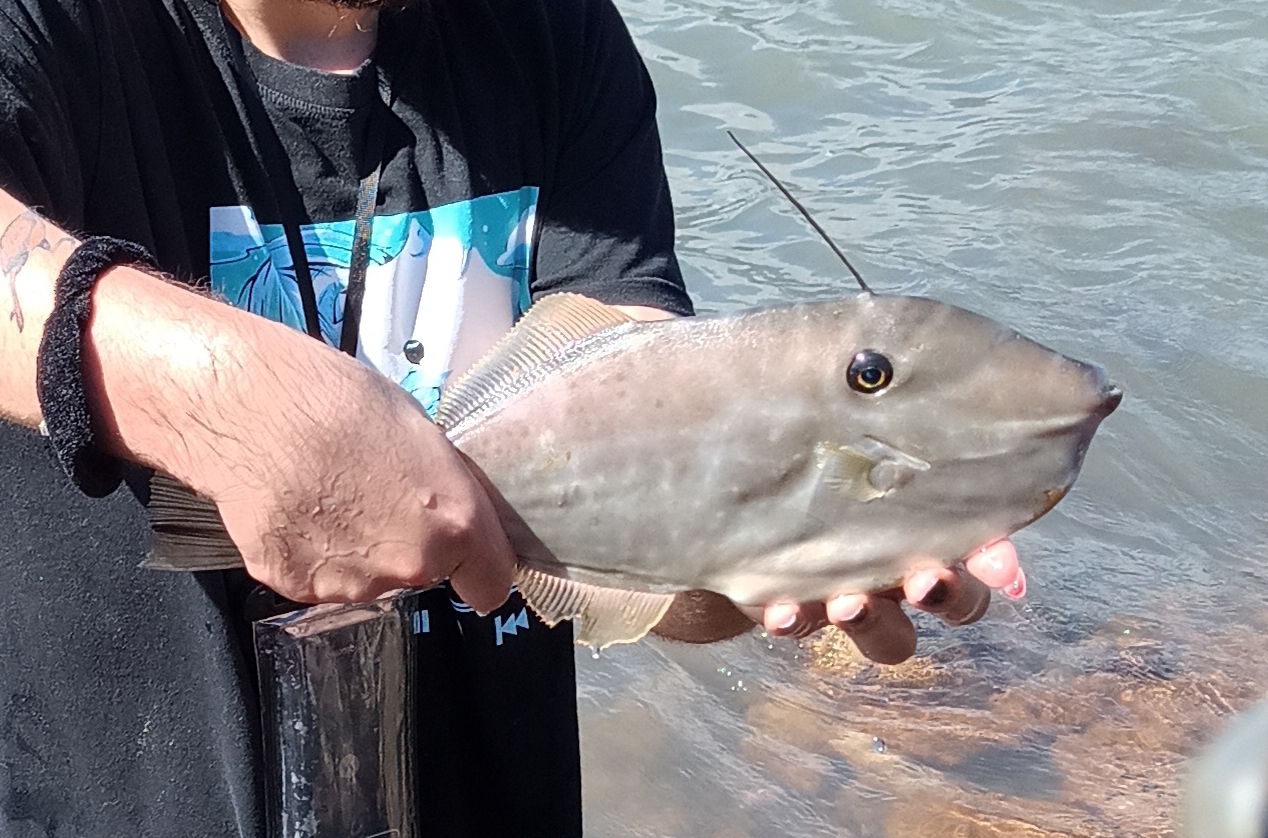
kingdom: Animalia
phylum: Chordata
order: Tetraodontiformes
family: Monacanthidae
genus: Aluterus
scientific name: Aluterus monoceros
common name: Batfish
